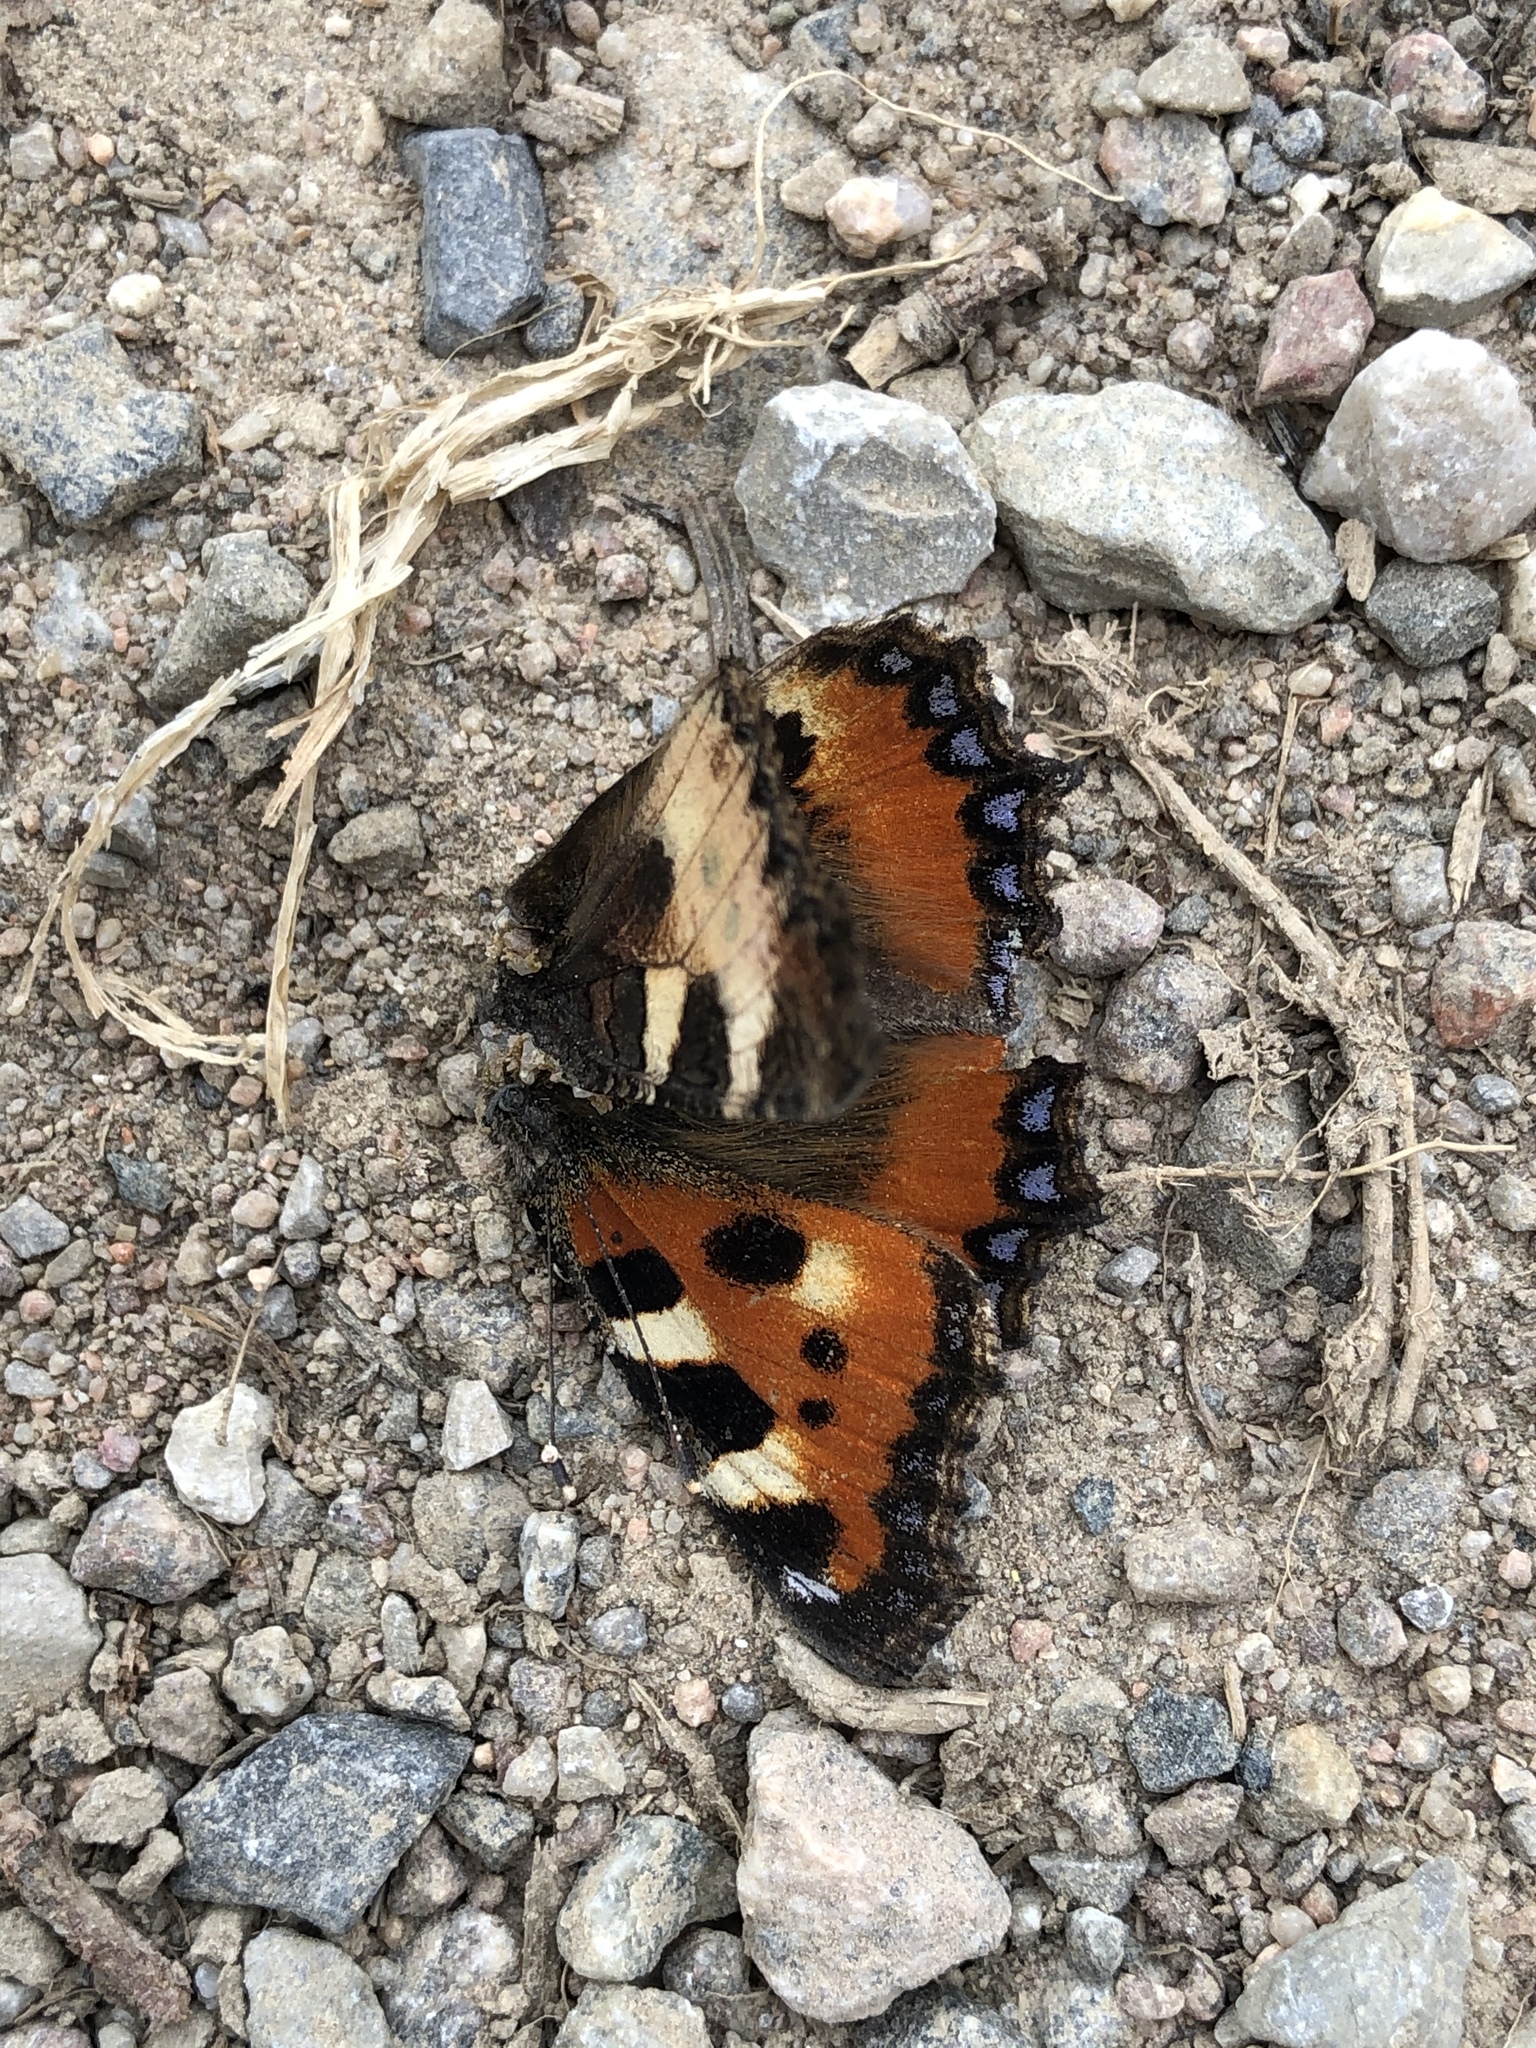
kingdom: Animalia
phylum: Arthropoda
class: Insecta
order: Lepidoptera
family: Nymphalidae
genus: Aglais
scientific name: Aglais urticae
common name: Small tortoiseshell
